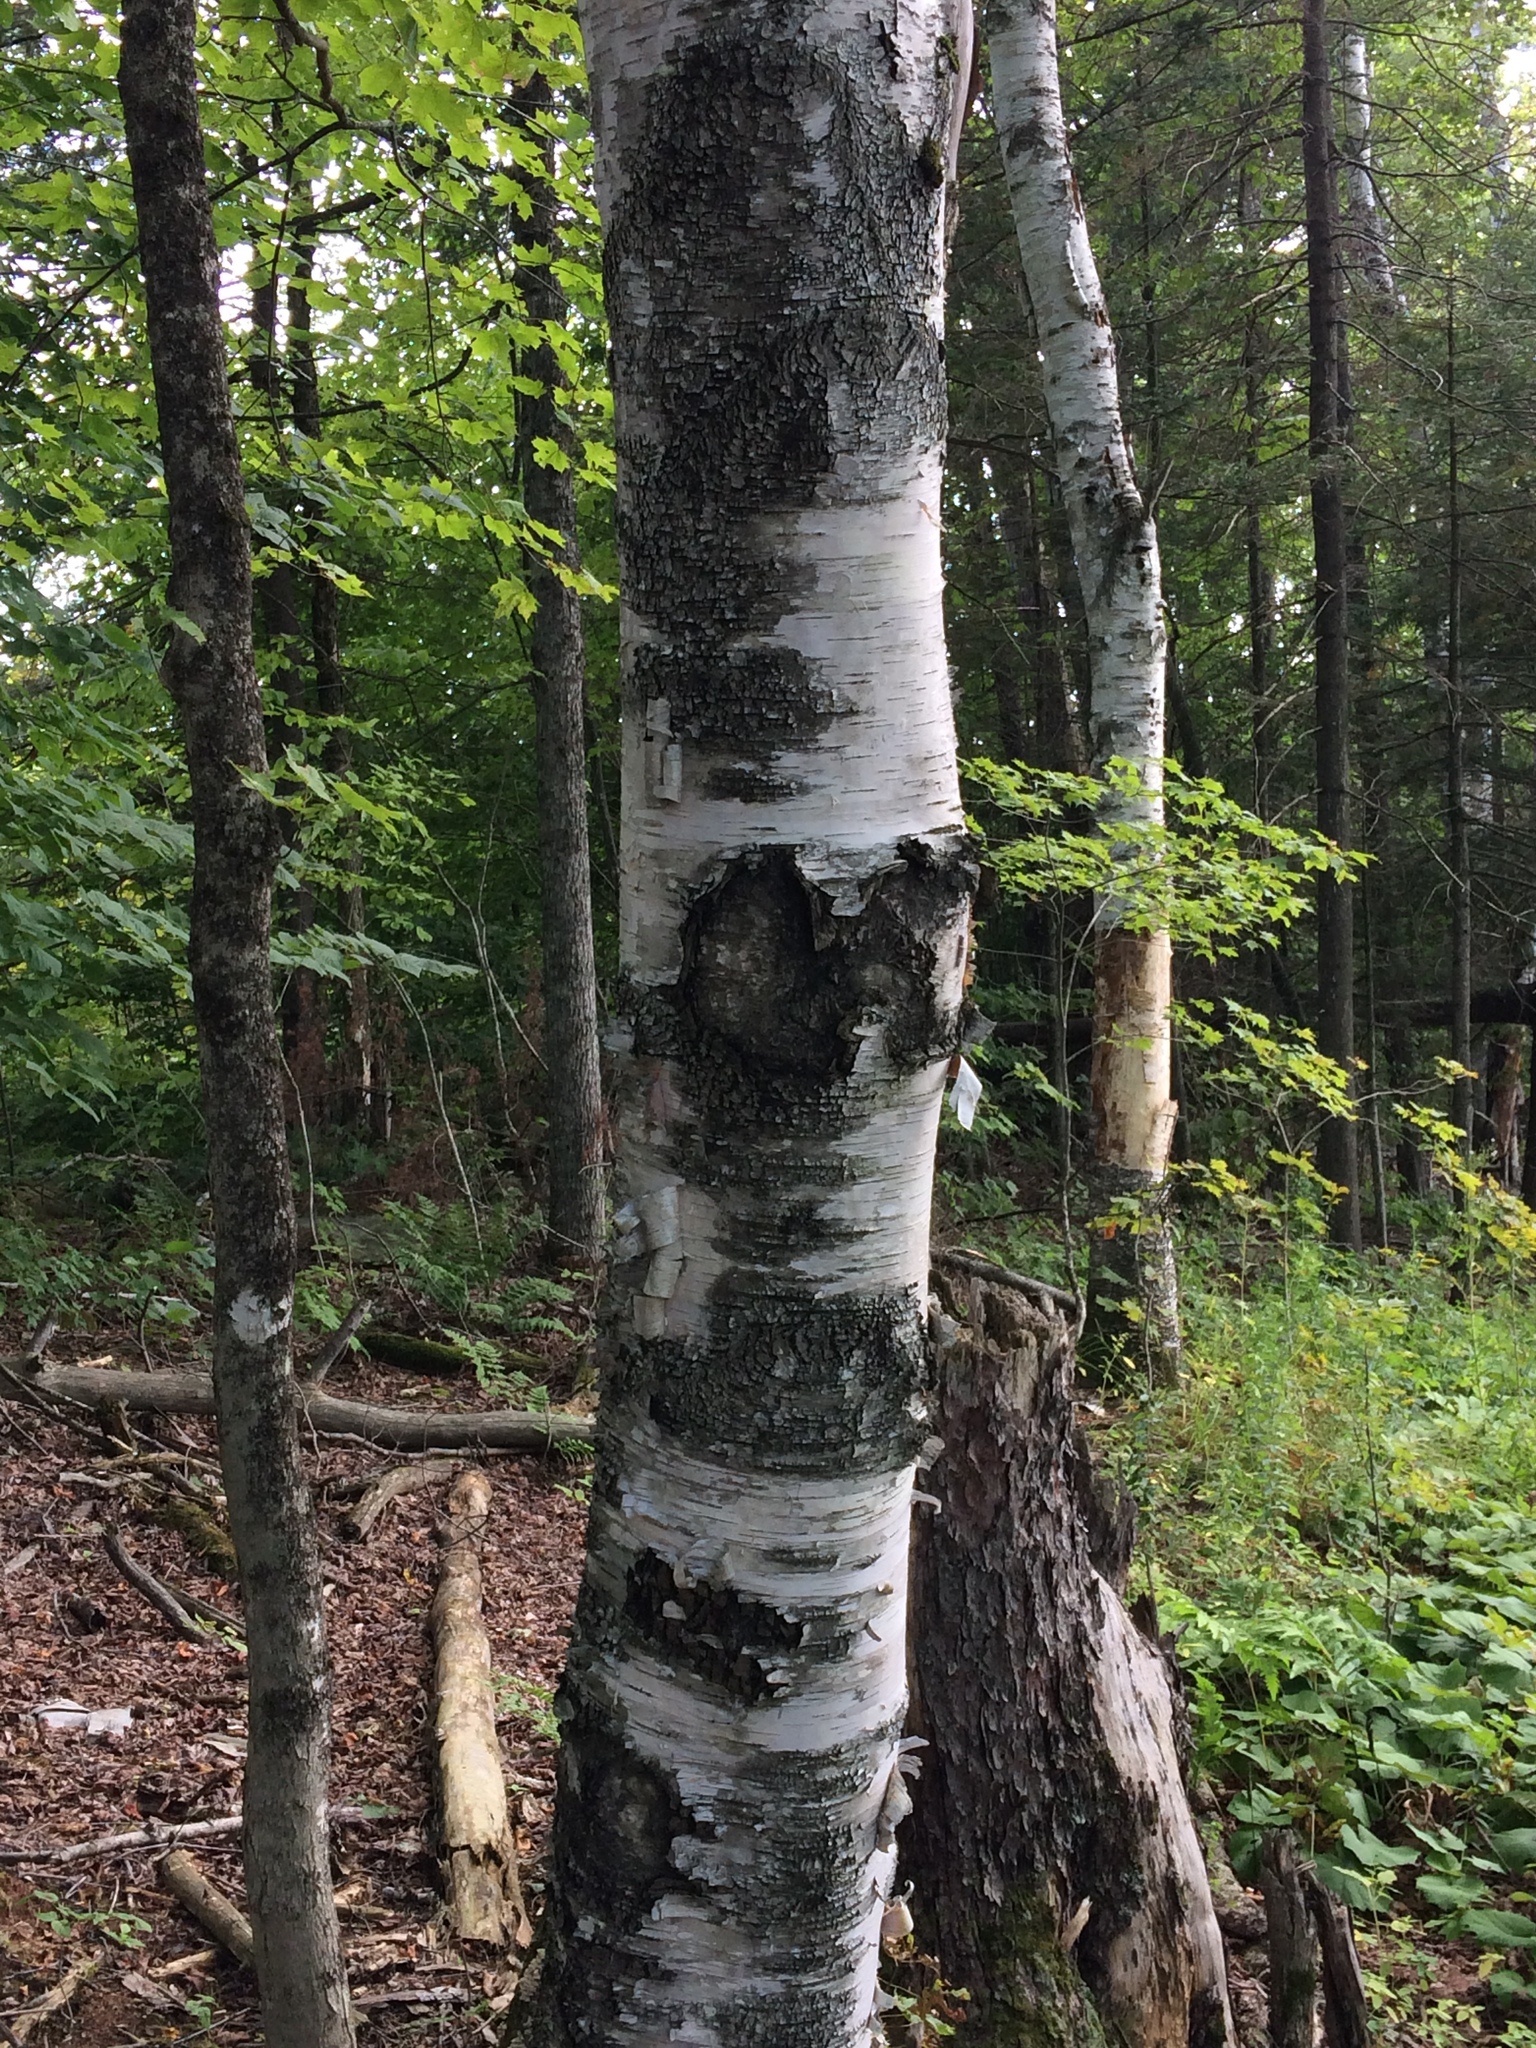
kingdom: Plantae
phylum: Tracheophyta
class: Magnoliopsida
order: Fagales
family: Betulaceae
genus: Betula
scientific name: Betula papyrifera
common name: Paper birch
